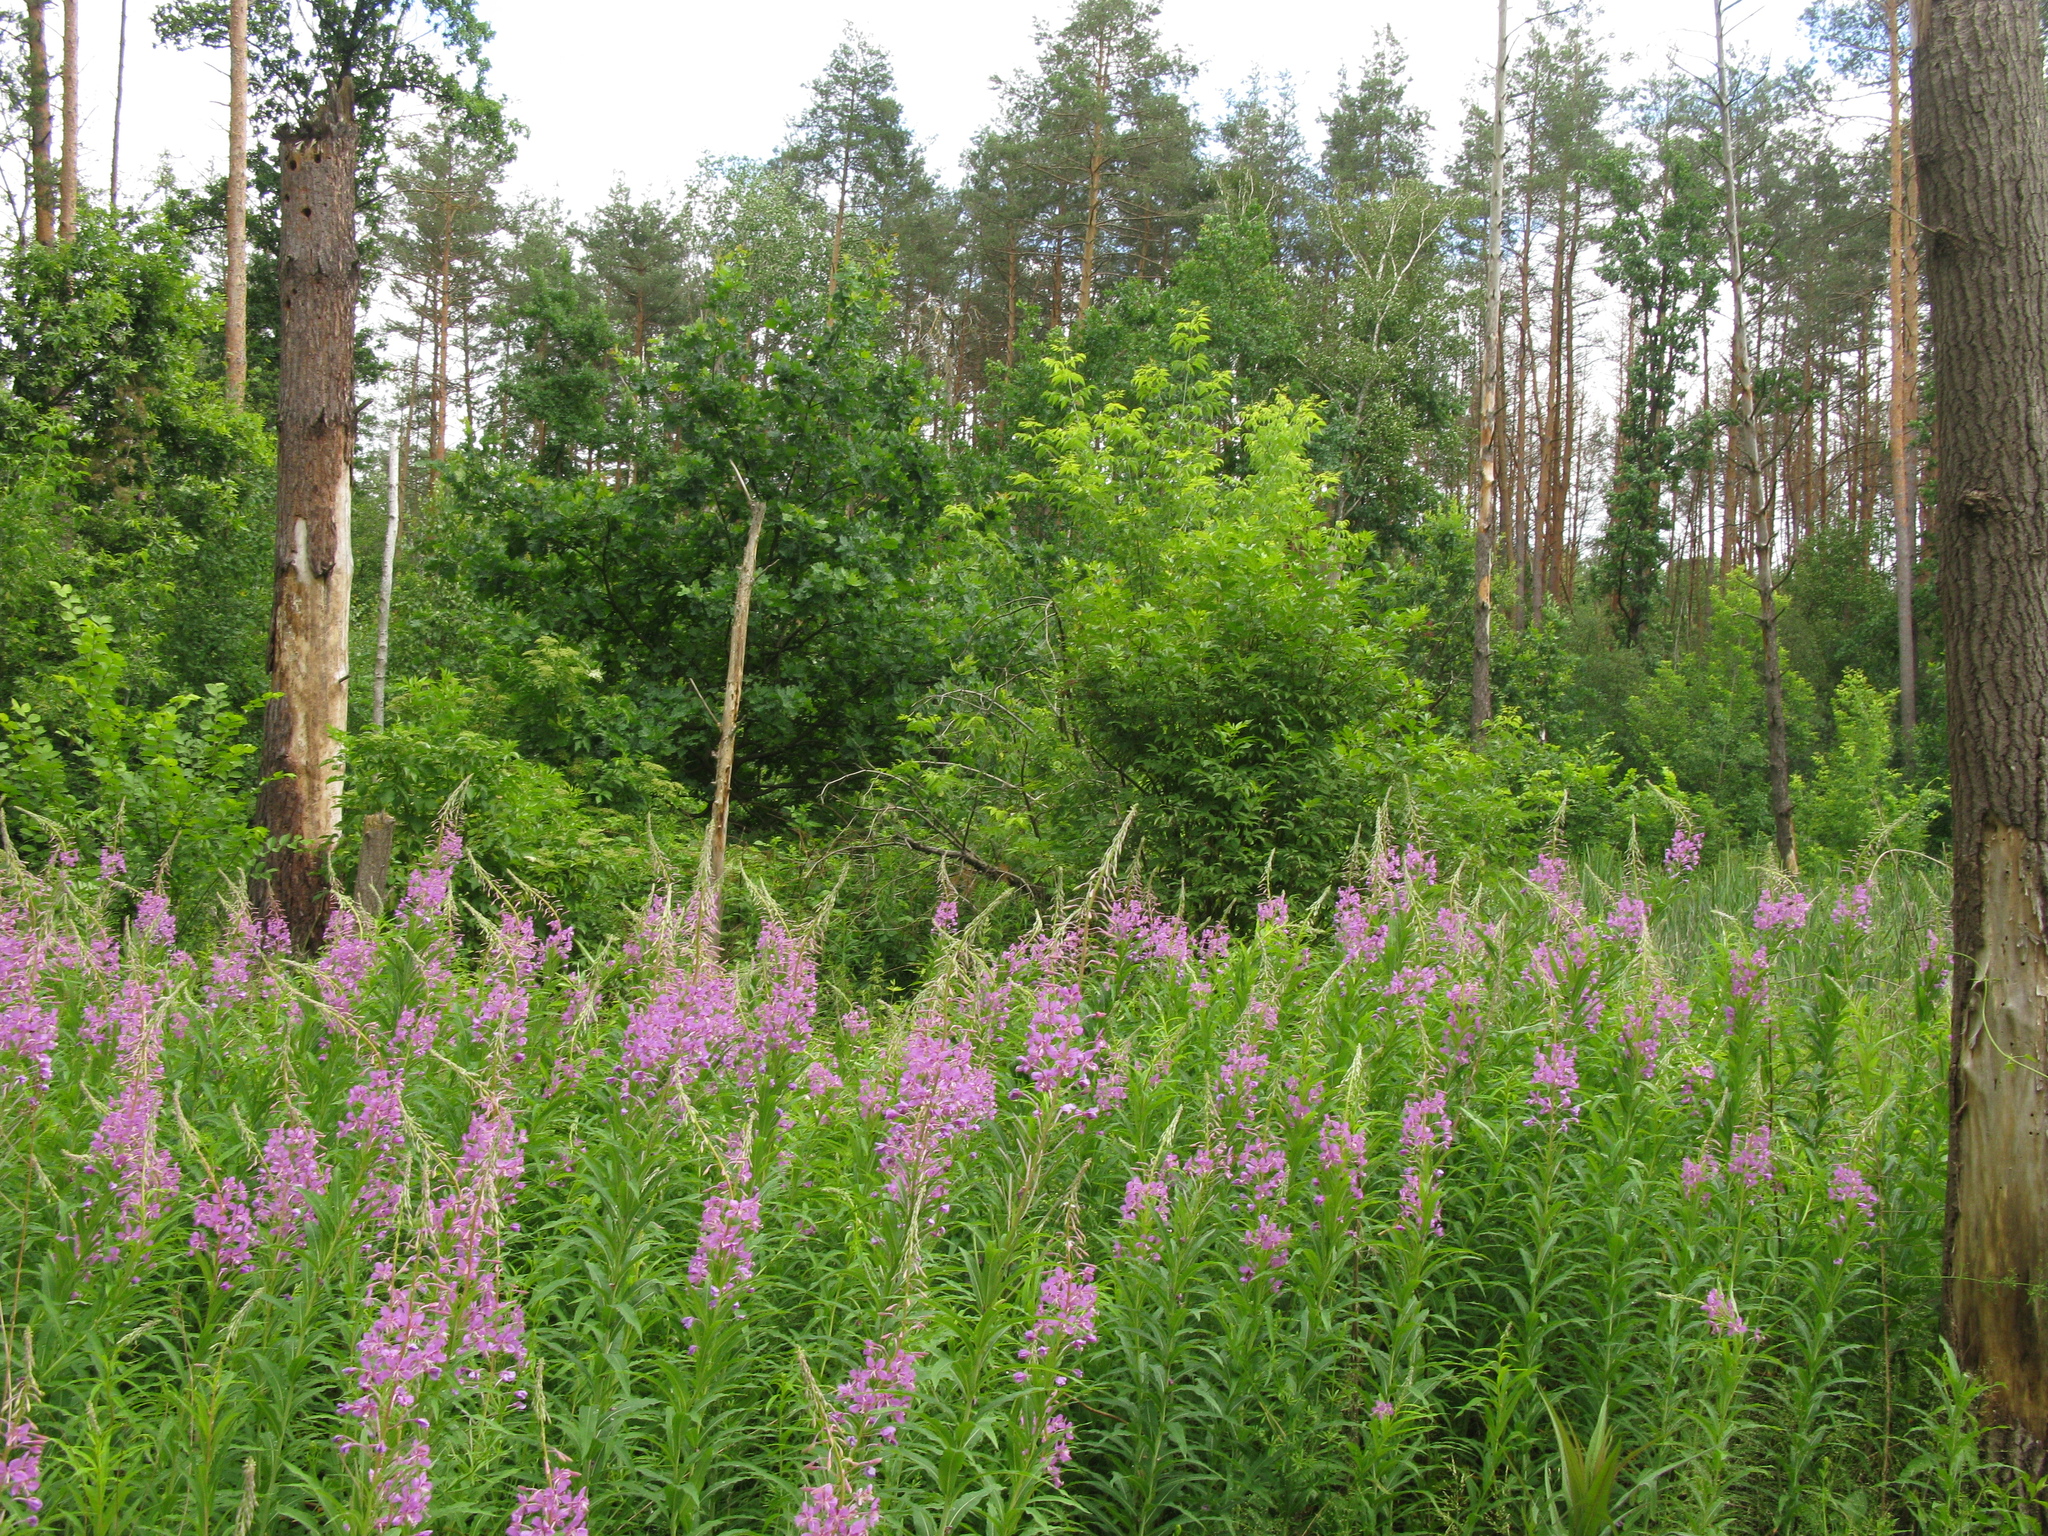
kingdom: Plantae
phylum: Tracheophyta
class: Magnoliopsida
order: Myrtales
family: Onagraceae
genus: Chamaenerion
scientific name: Chamaenerion angustifolium
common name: Fireweed
